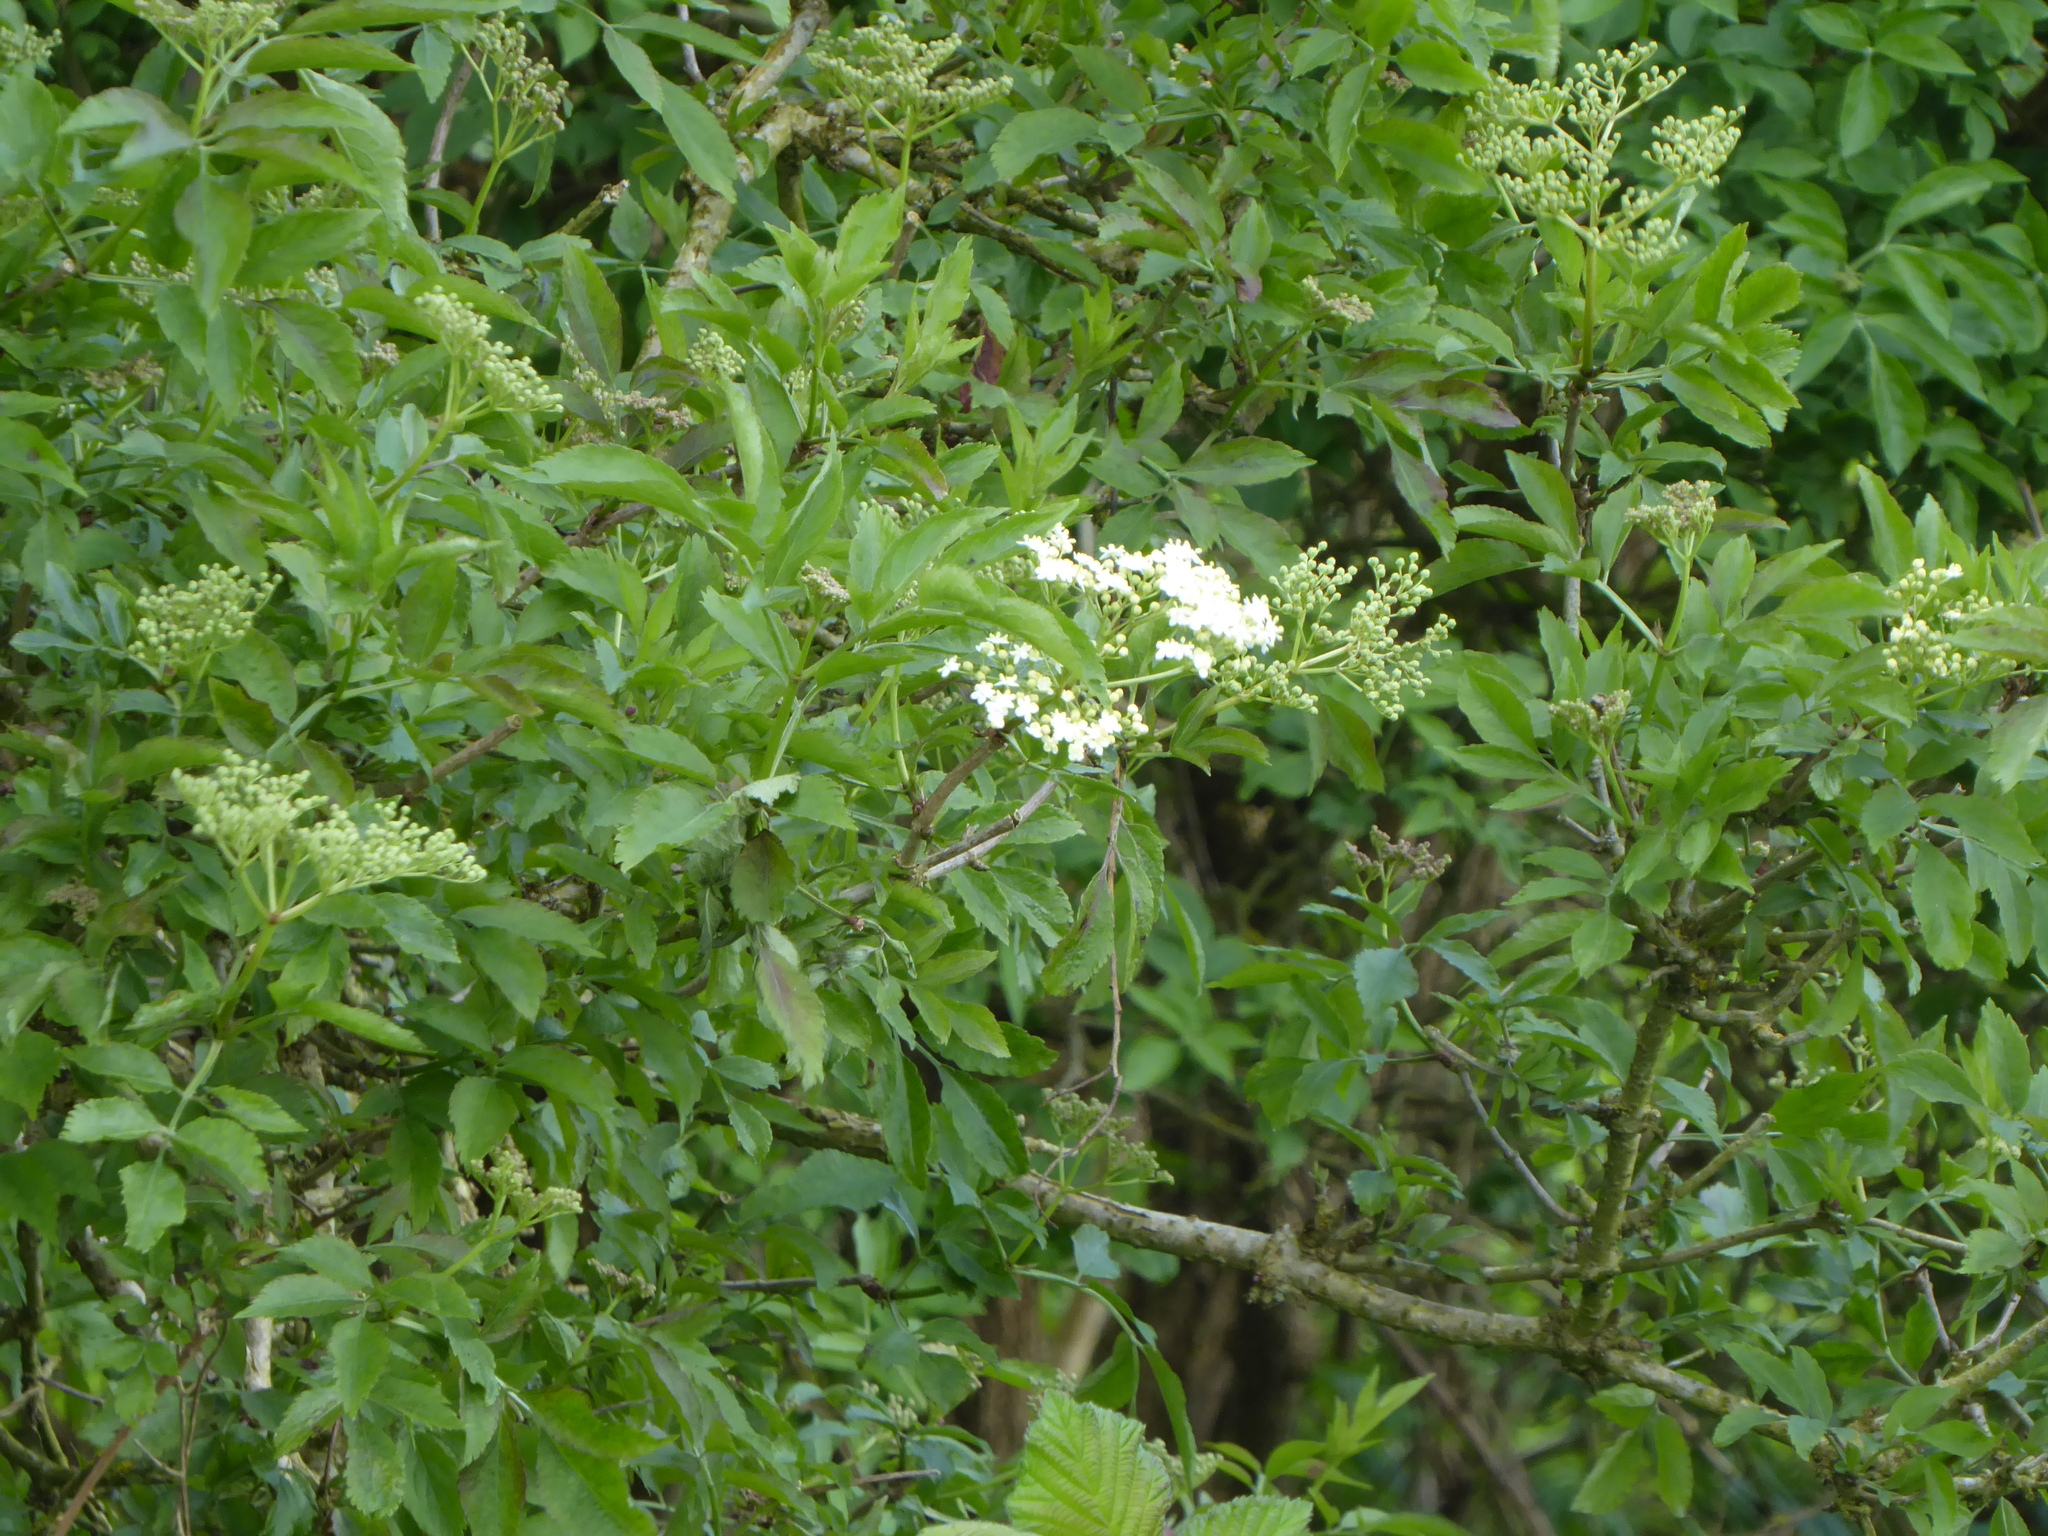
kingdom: Plantae
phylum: Tracheophyta
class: Magnoliopsida
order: Dipsacales
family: Viburnaceae
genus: Sambucus
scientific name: Sambucus nigra
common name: Elder
